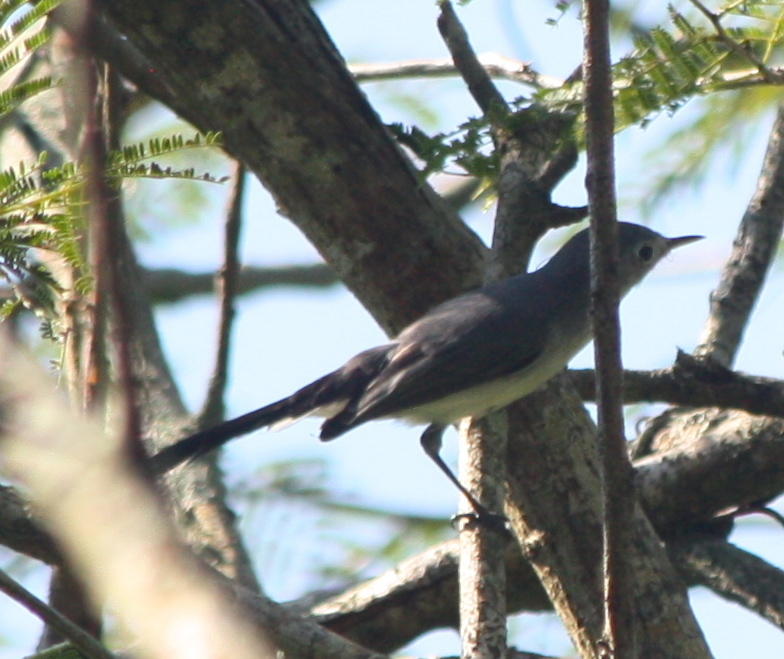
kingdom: Animalia
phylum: Chordata
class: Aves
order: Passeriformes
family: Polioptilidae
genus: Polioptila
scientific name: Polioptila caerulea
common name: Blue-gray gnatcatcher
